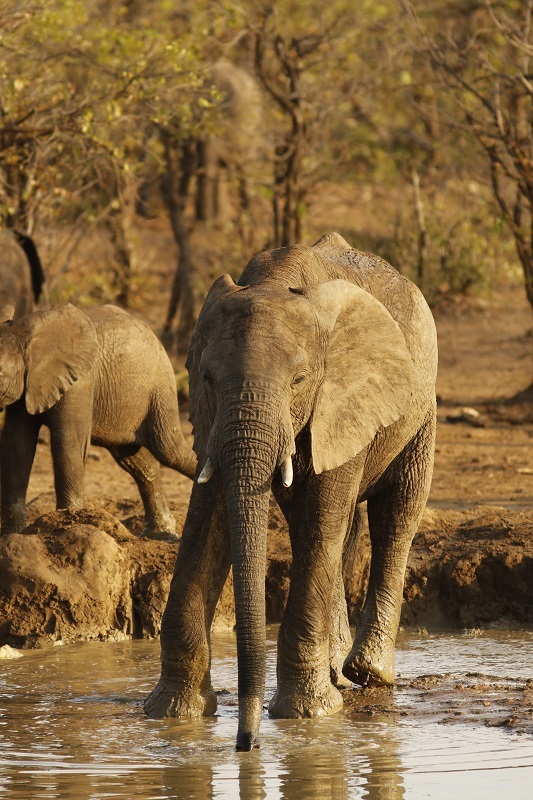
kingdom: Animalia
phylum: Chordata
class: Mammalia
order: Proboscidea
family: Elephantidae
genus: Loxodonta
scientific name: Loxodonta africana
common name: African elephant
